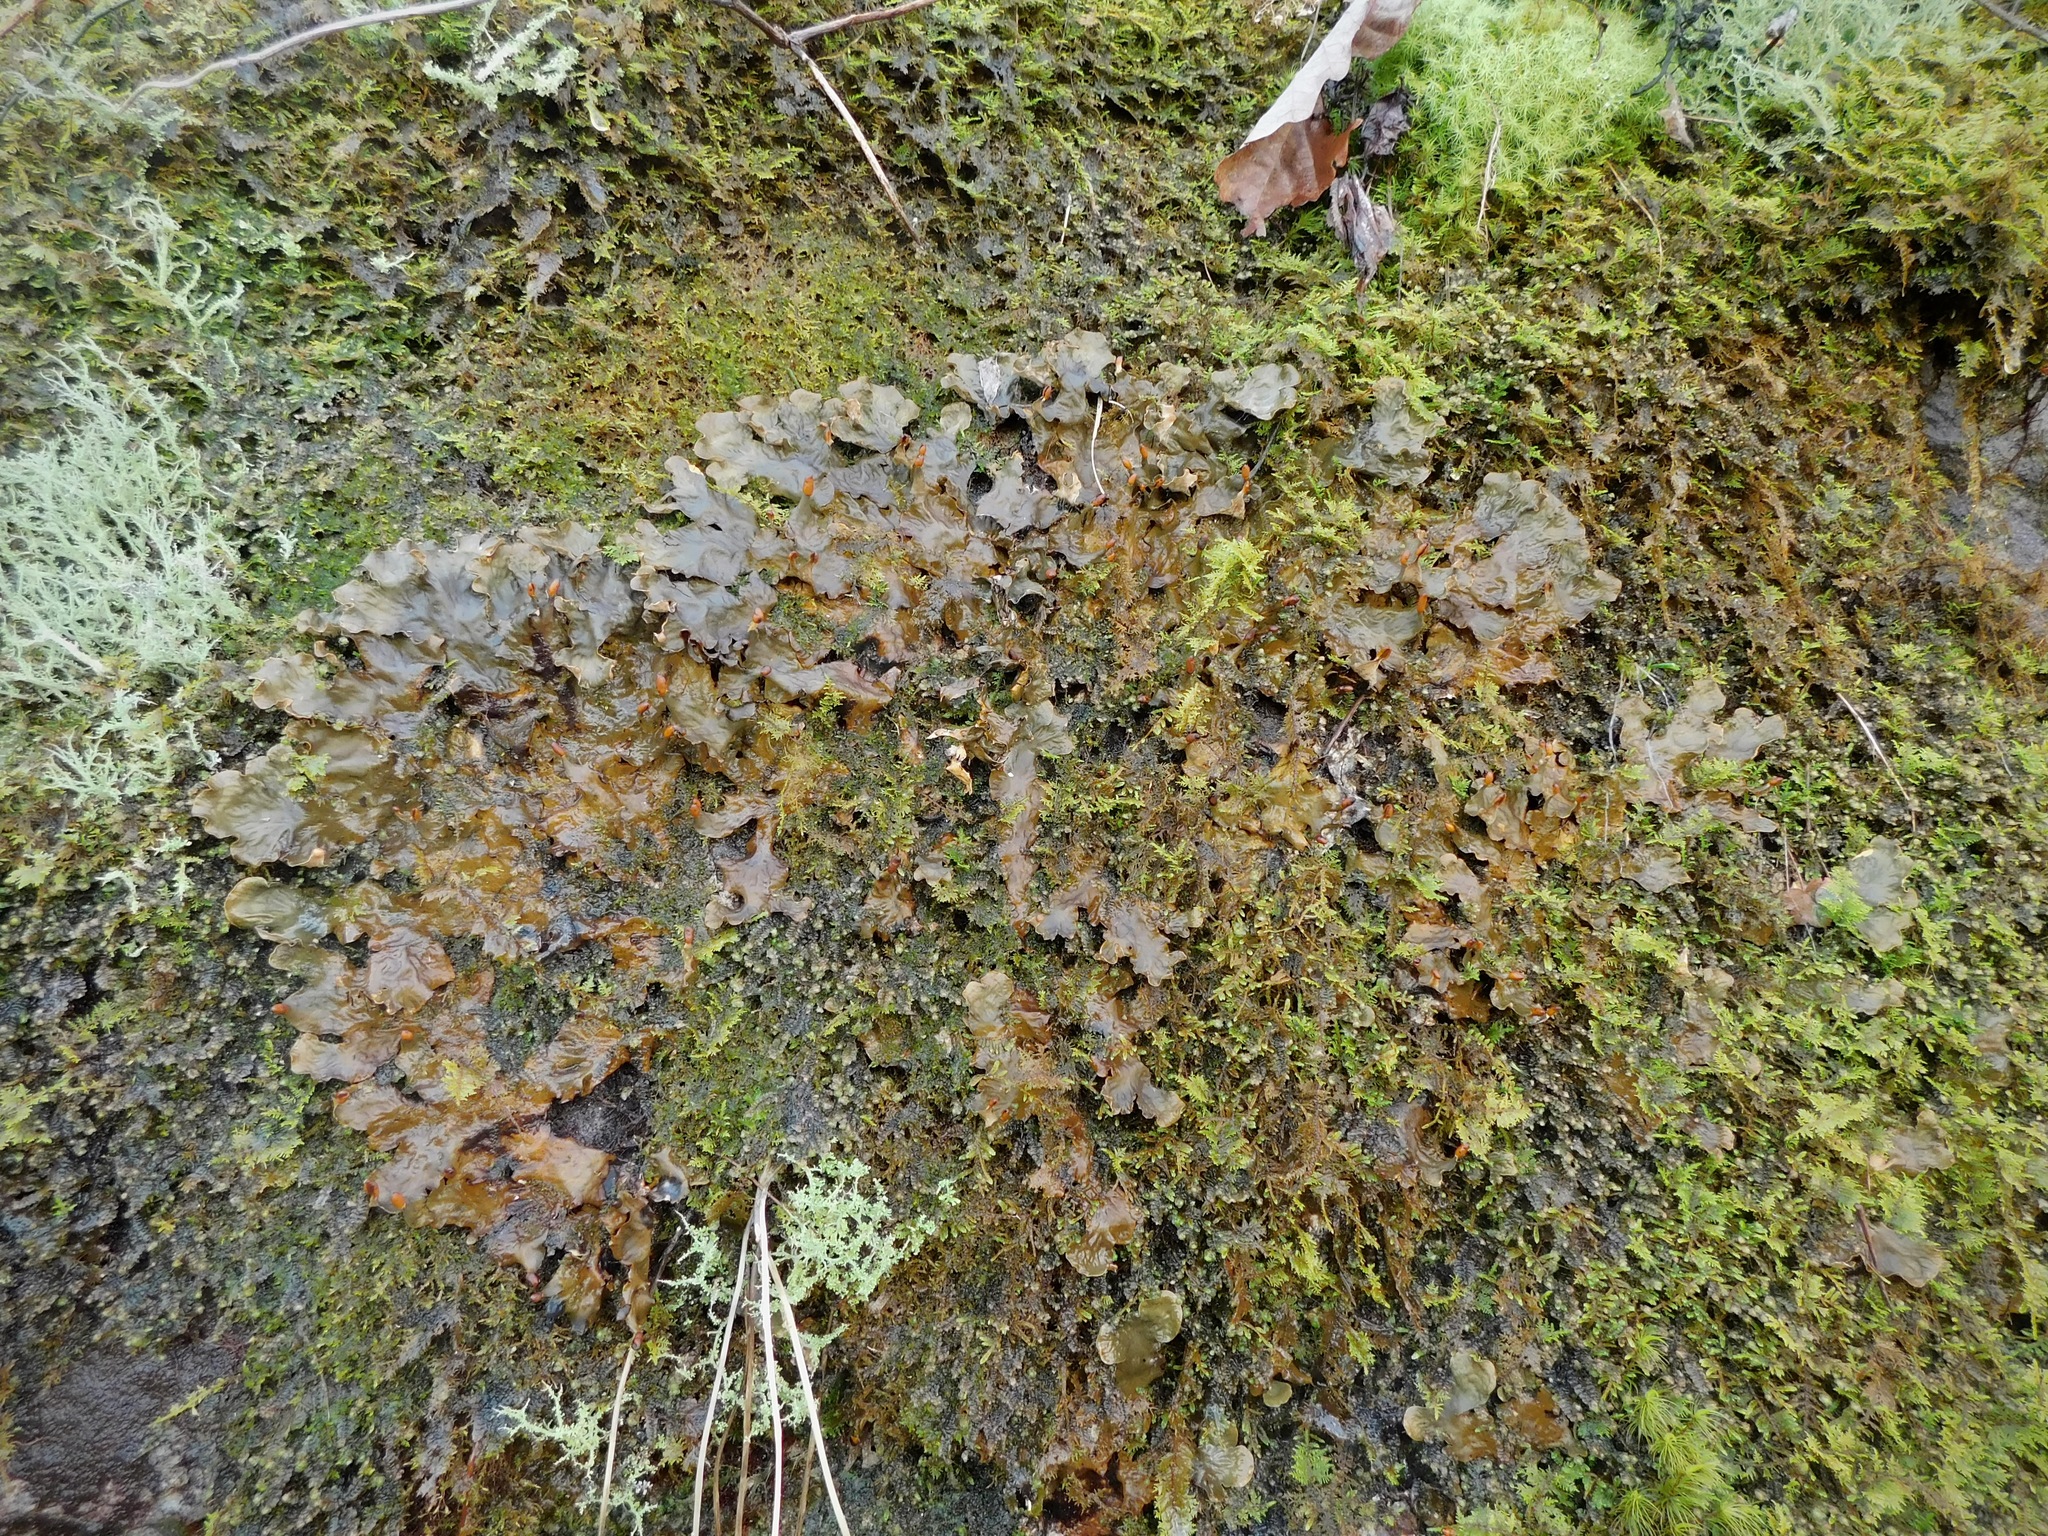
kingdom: Fungi
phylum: Ascomycota
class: Lecanoromycetes
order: Peltigerales
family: Peltigeraceae
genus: Peltigera
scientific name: Peltigera neopolydactyla
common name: Carpet pelt
